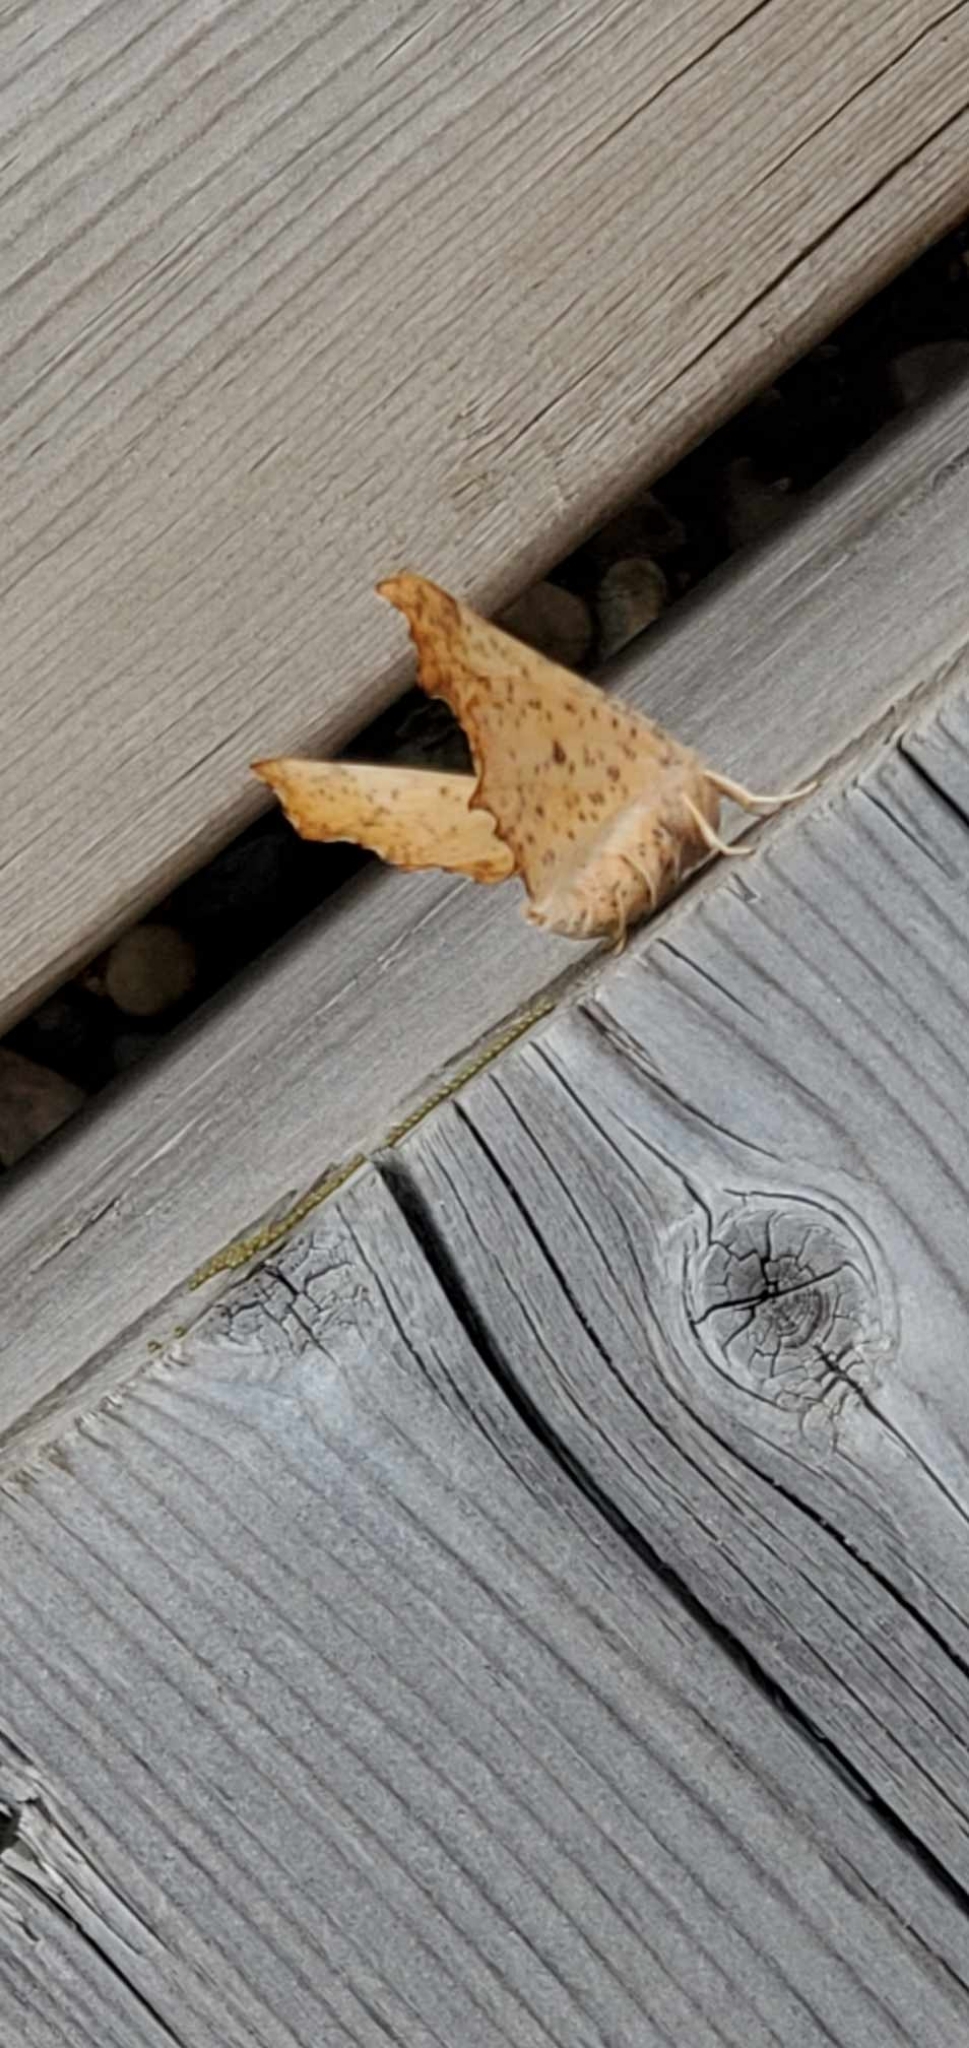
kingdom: Animalia
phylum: Arthropoda
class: Insecta
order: Lepidoptera
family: Geometridae
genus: Ennomos
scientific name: Ennomos magnaria
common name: Maple spanworm
